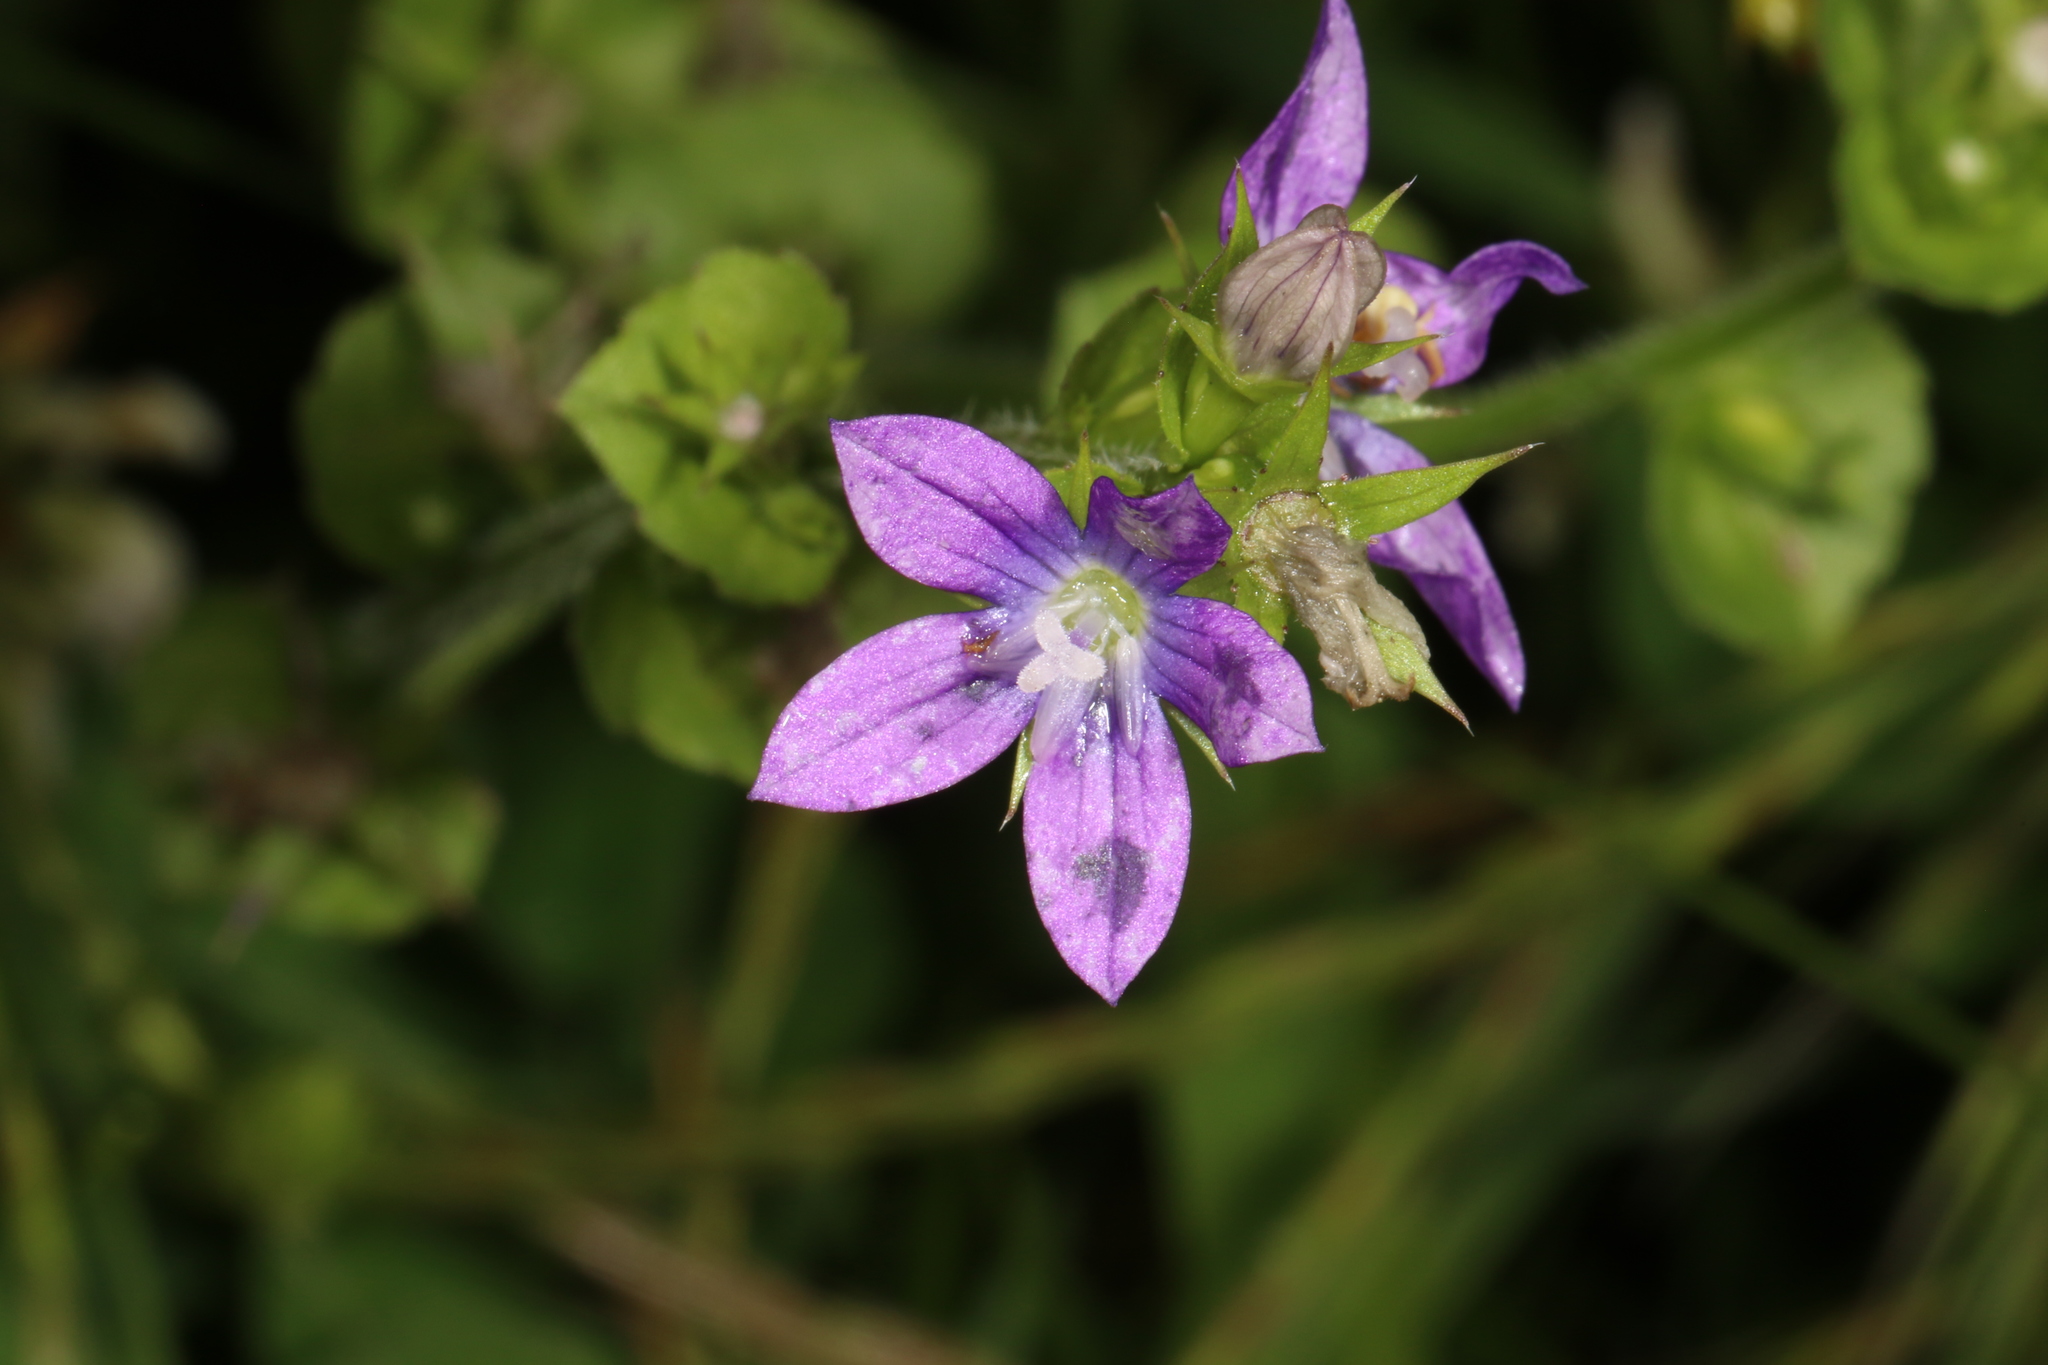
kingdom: Plantae
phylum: Tracheophyta
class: Magnoliopsida
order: Asterales
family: Campanulaceae
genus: Triodanis
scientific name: Triodanis perfoliata
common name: Clasping venus' looking-glass
